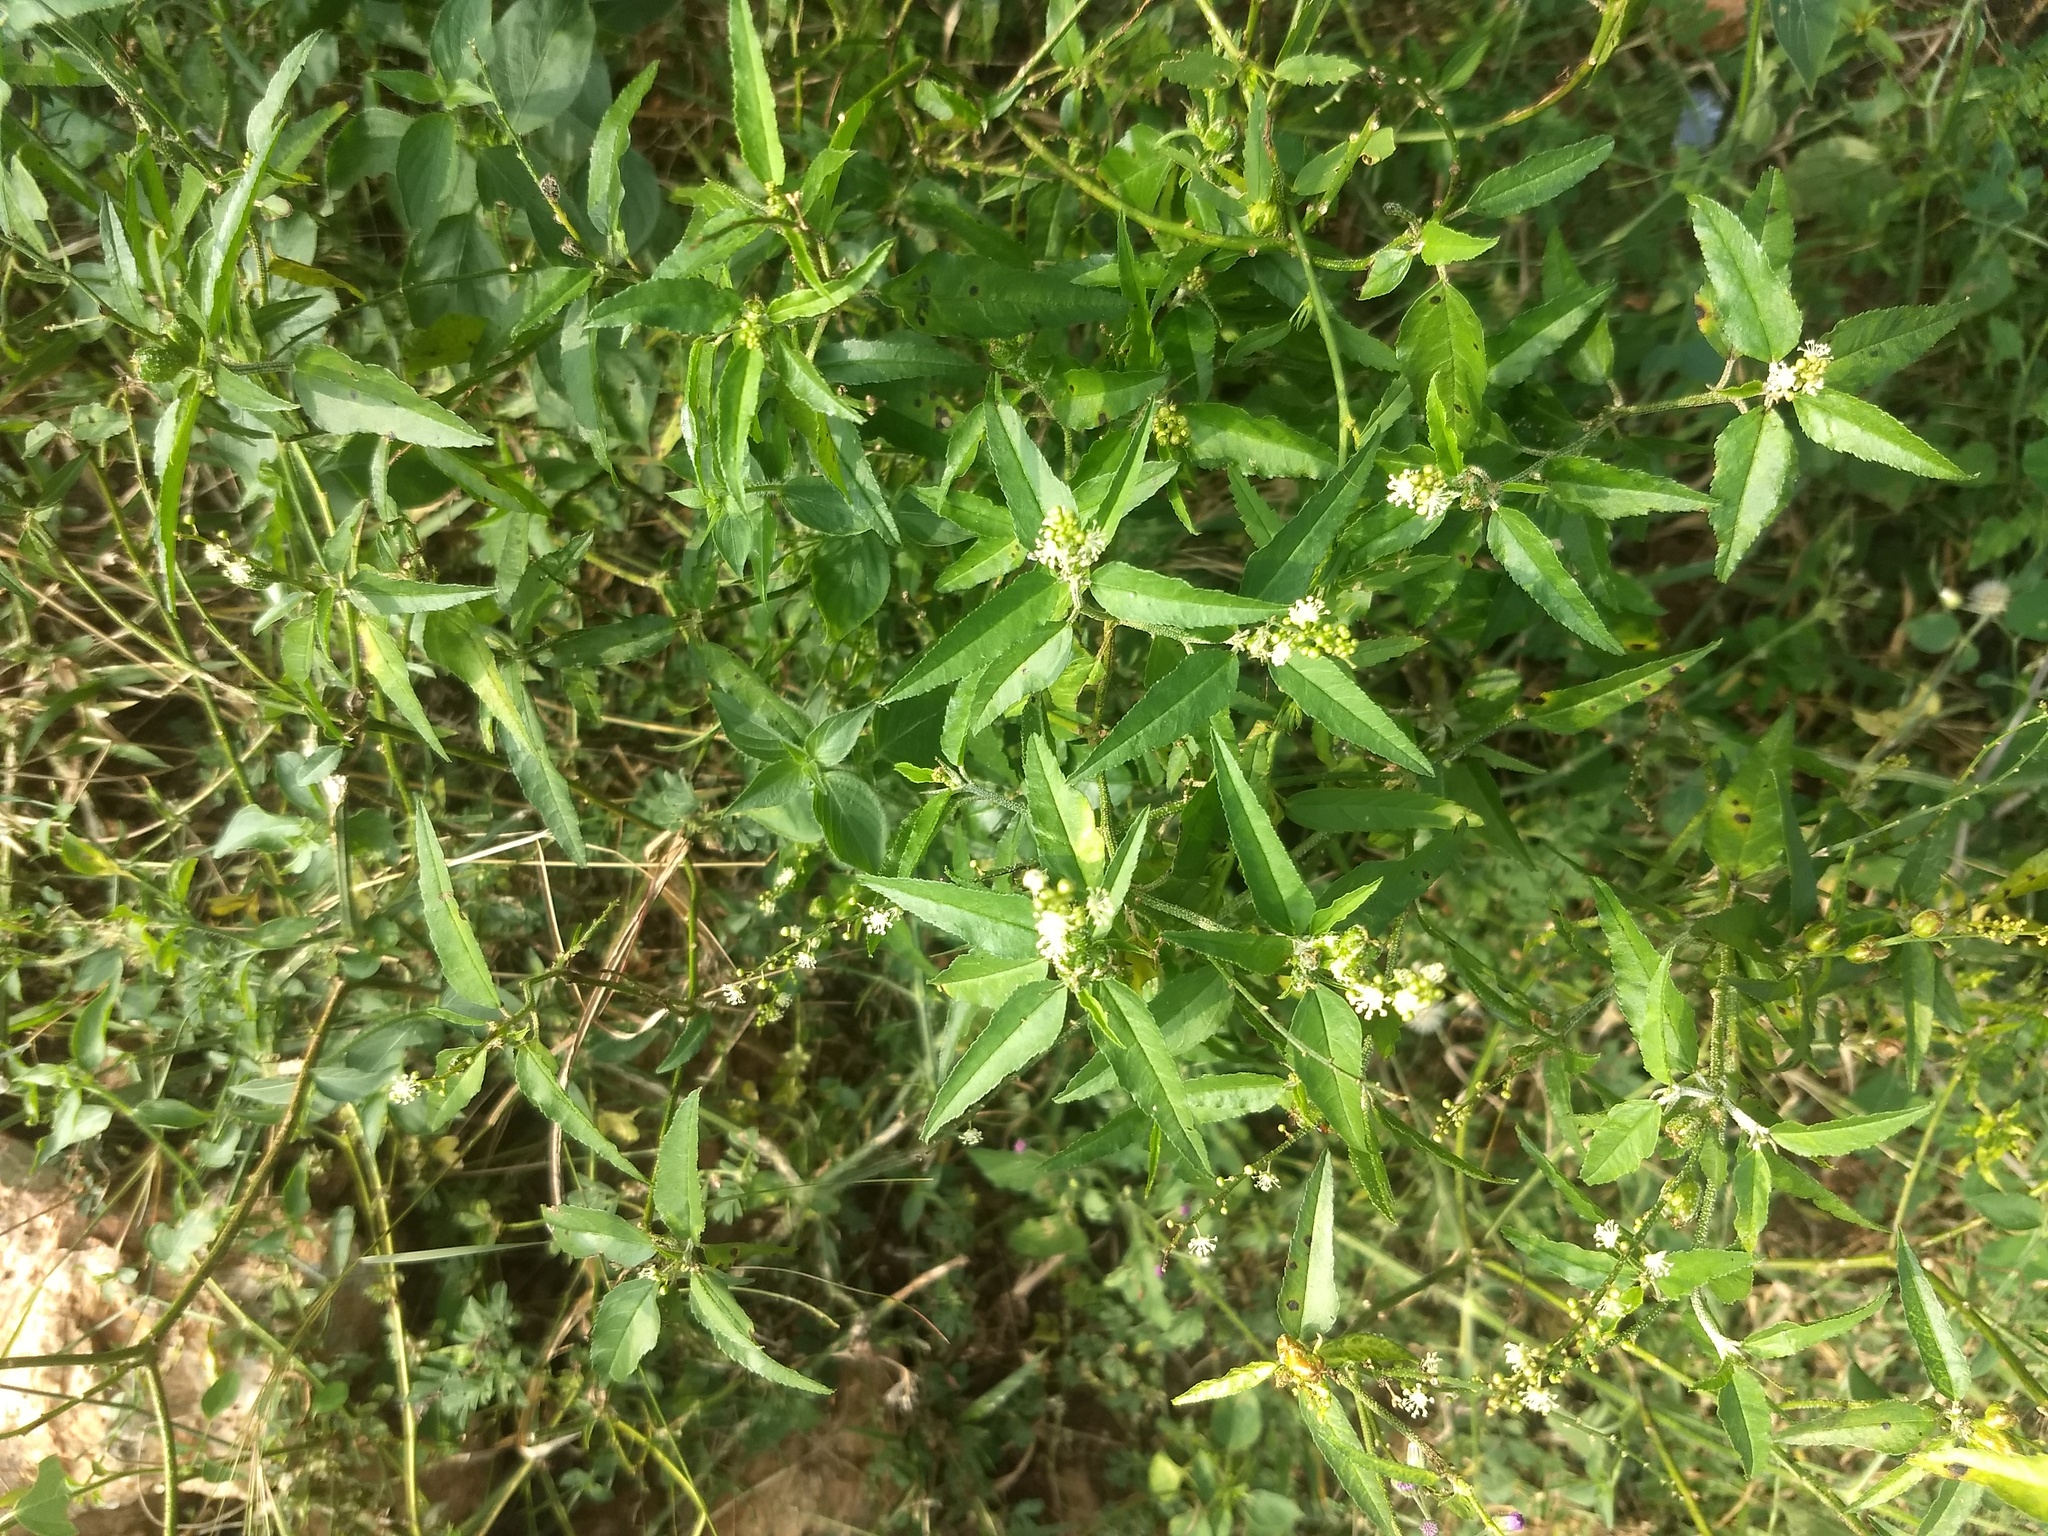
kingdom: Plantae
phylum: Tracheophyta
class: Magnoliopsida
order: Malpighiales
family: Euphorbiaceae
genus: Croton
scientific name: Croton bonplandianus
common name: Bonpland's croton
